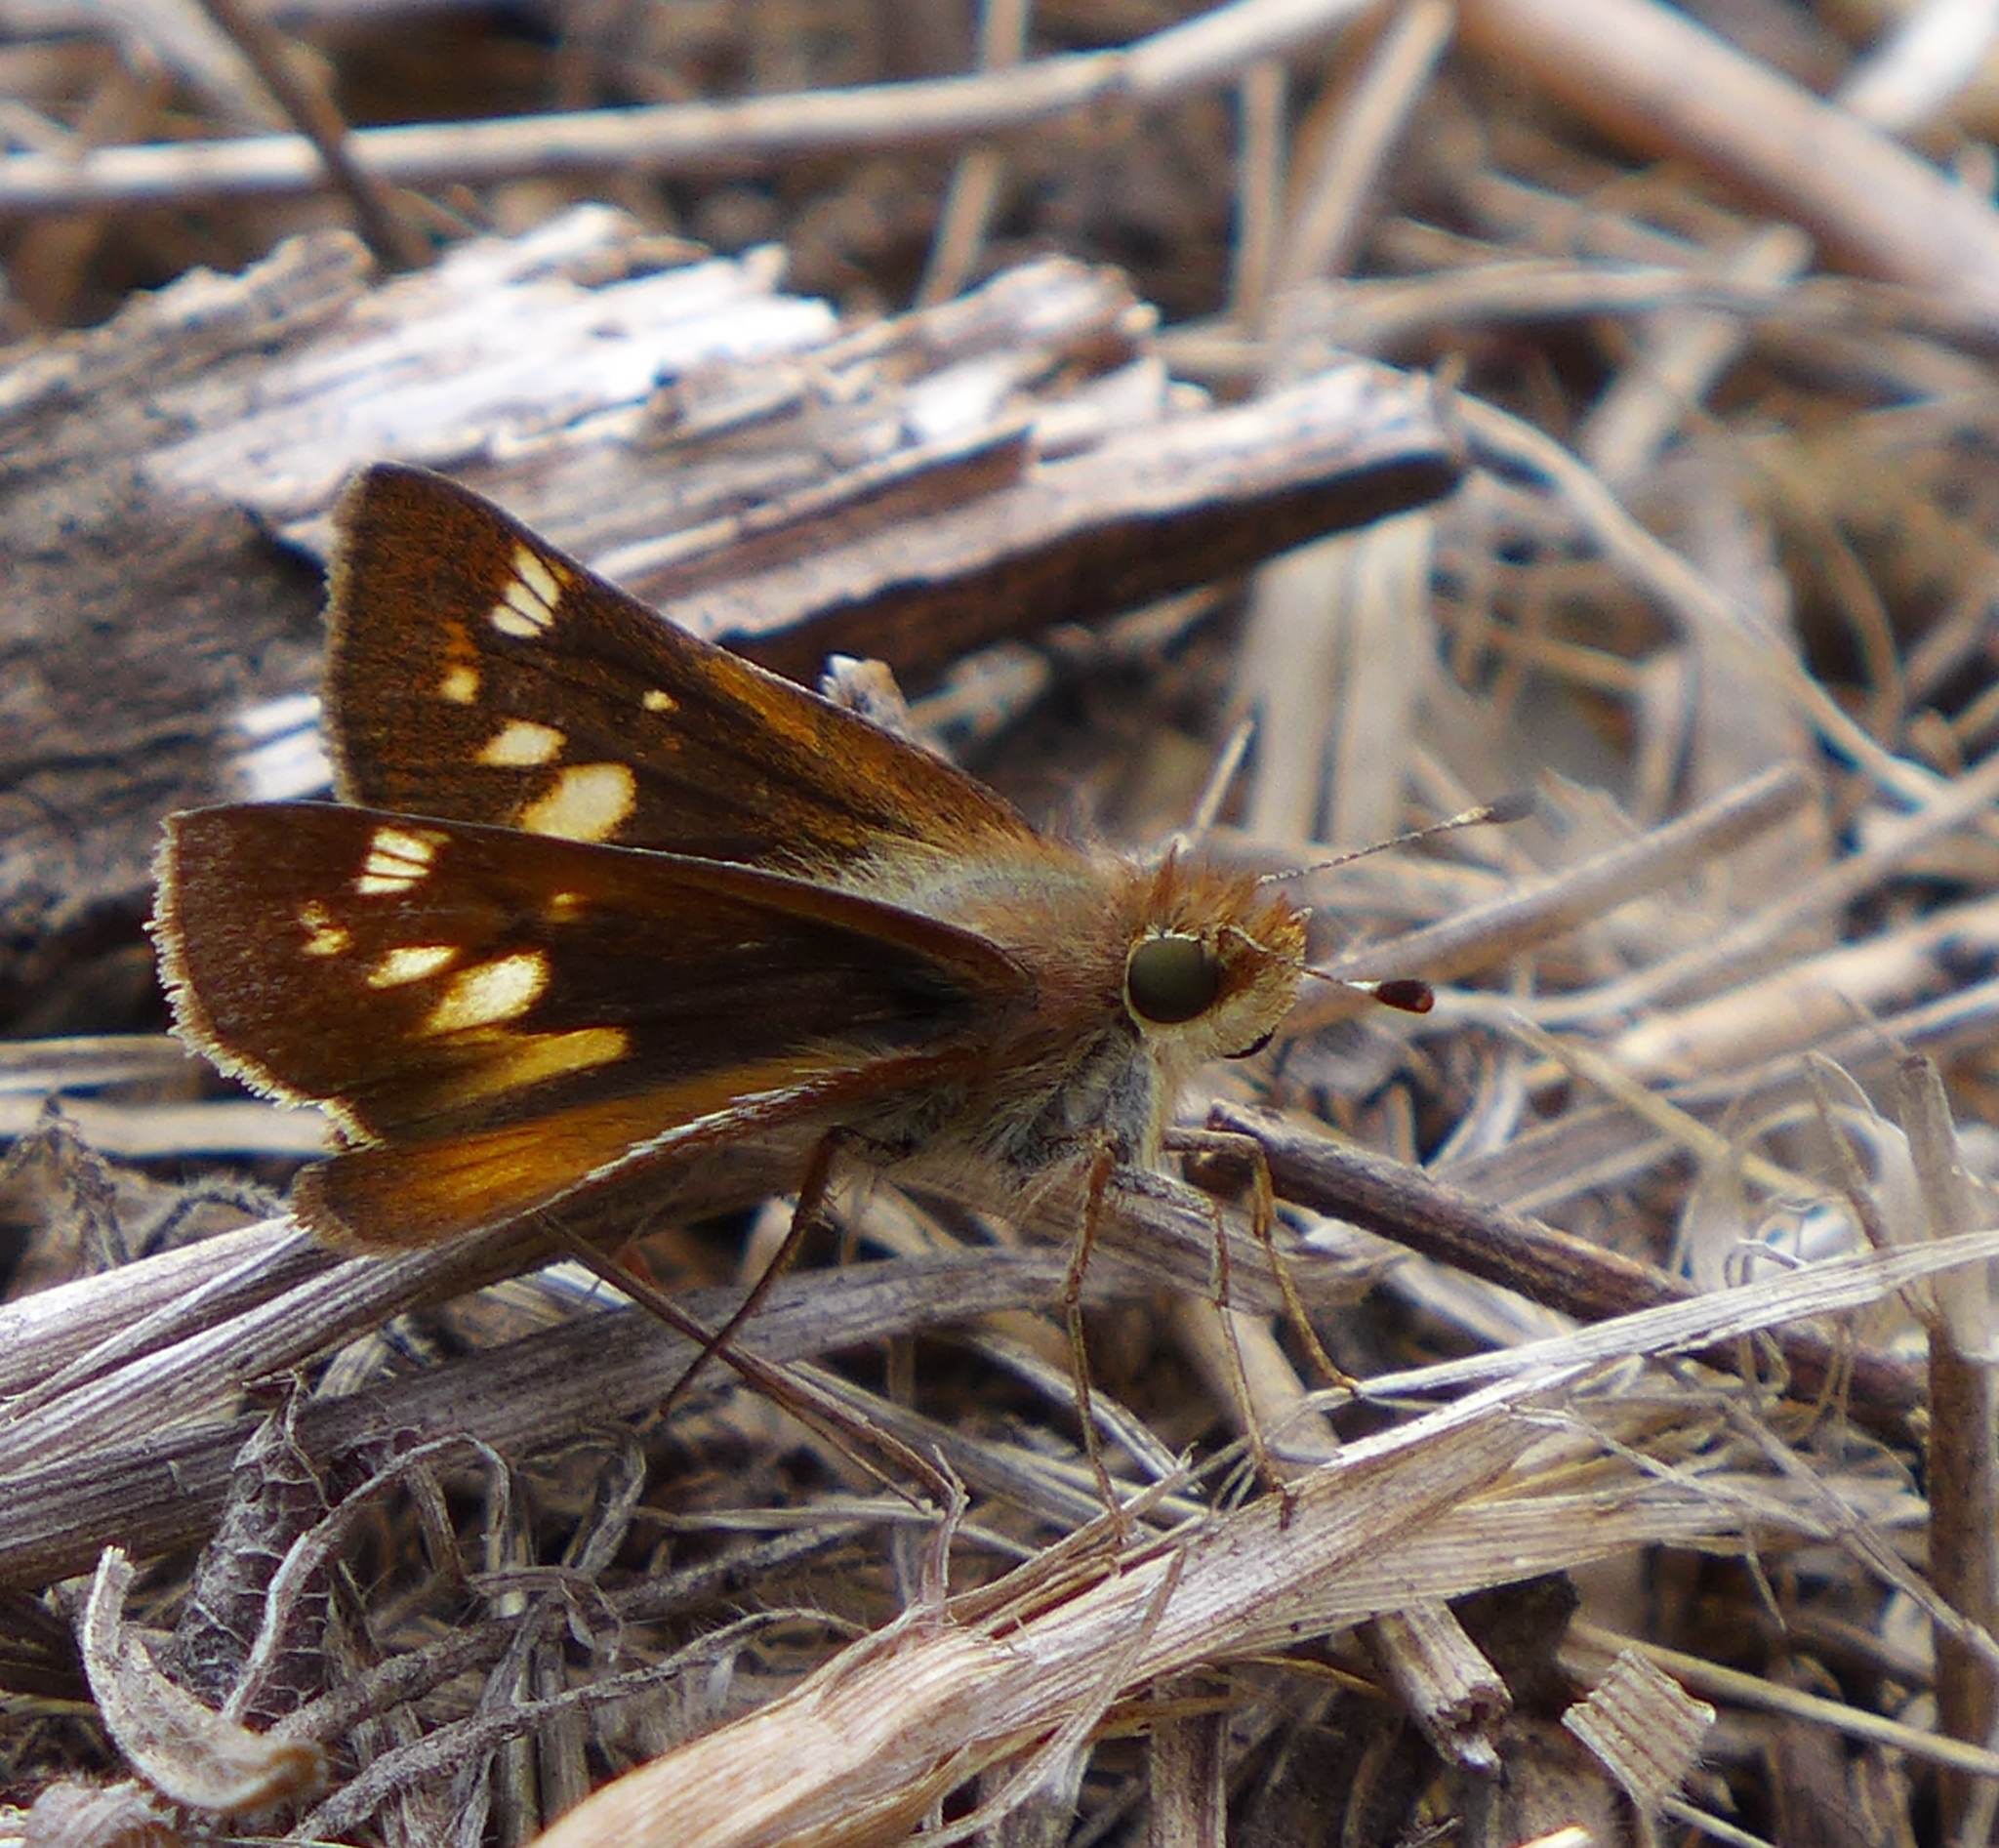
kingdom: Animalia
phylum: Arthropoda
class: Insecta
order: Lepidoptera
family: Hesperiidae
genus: Lon
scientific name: Lon melane
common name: Umber skipper
